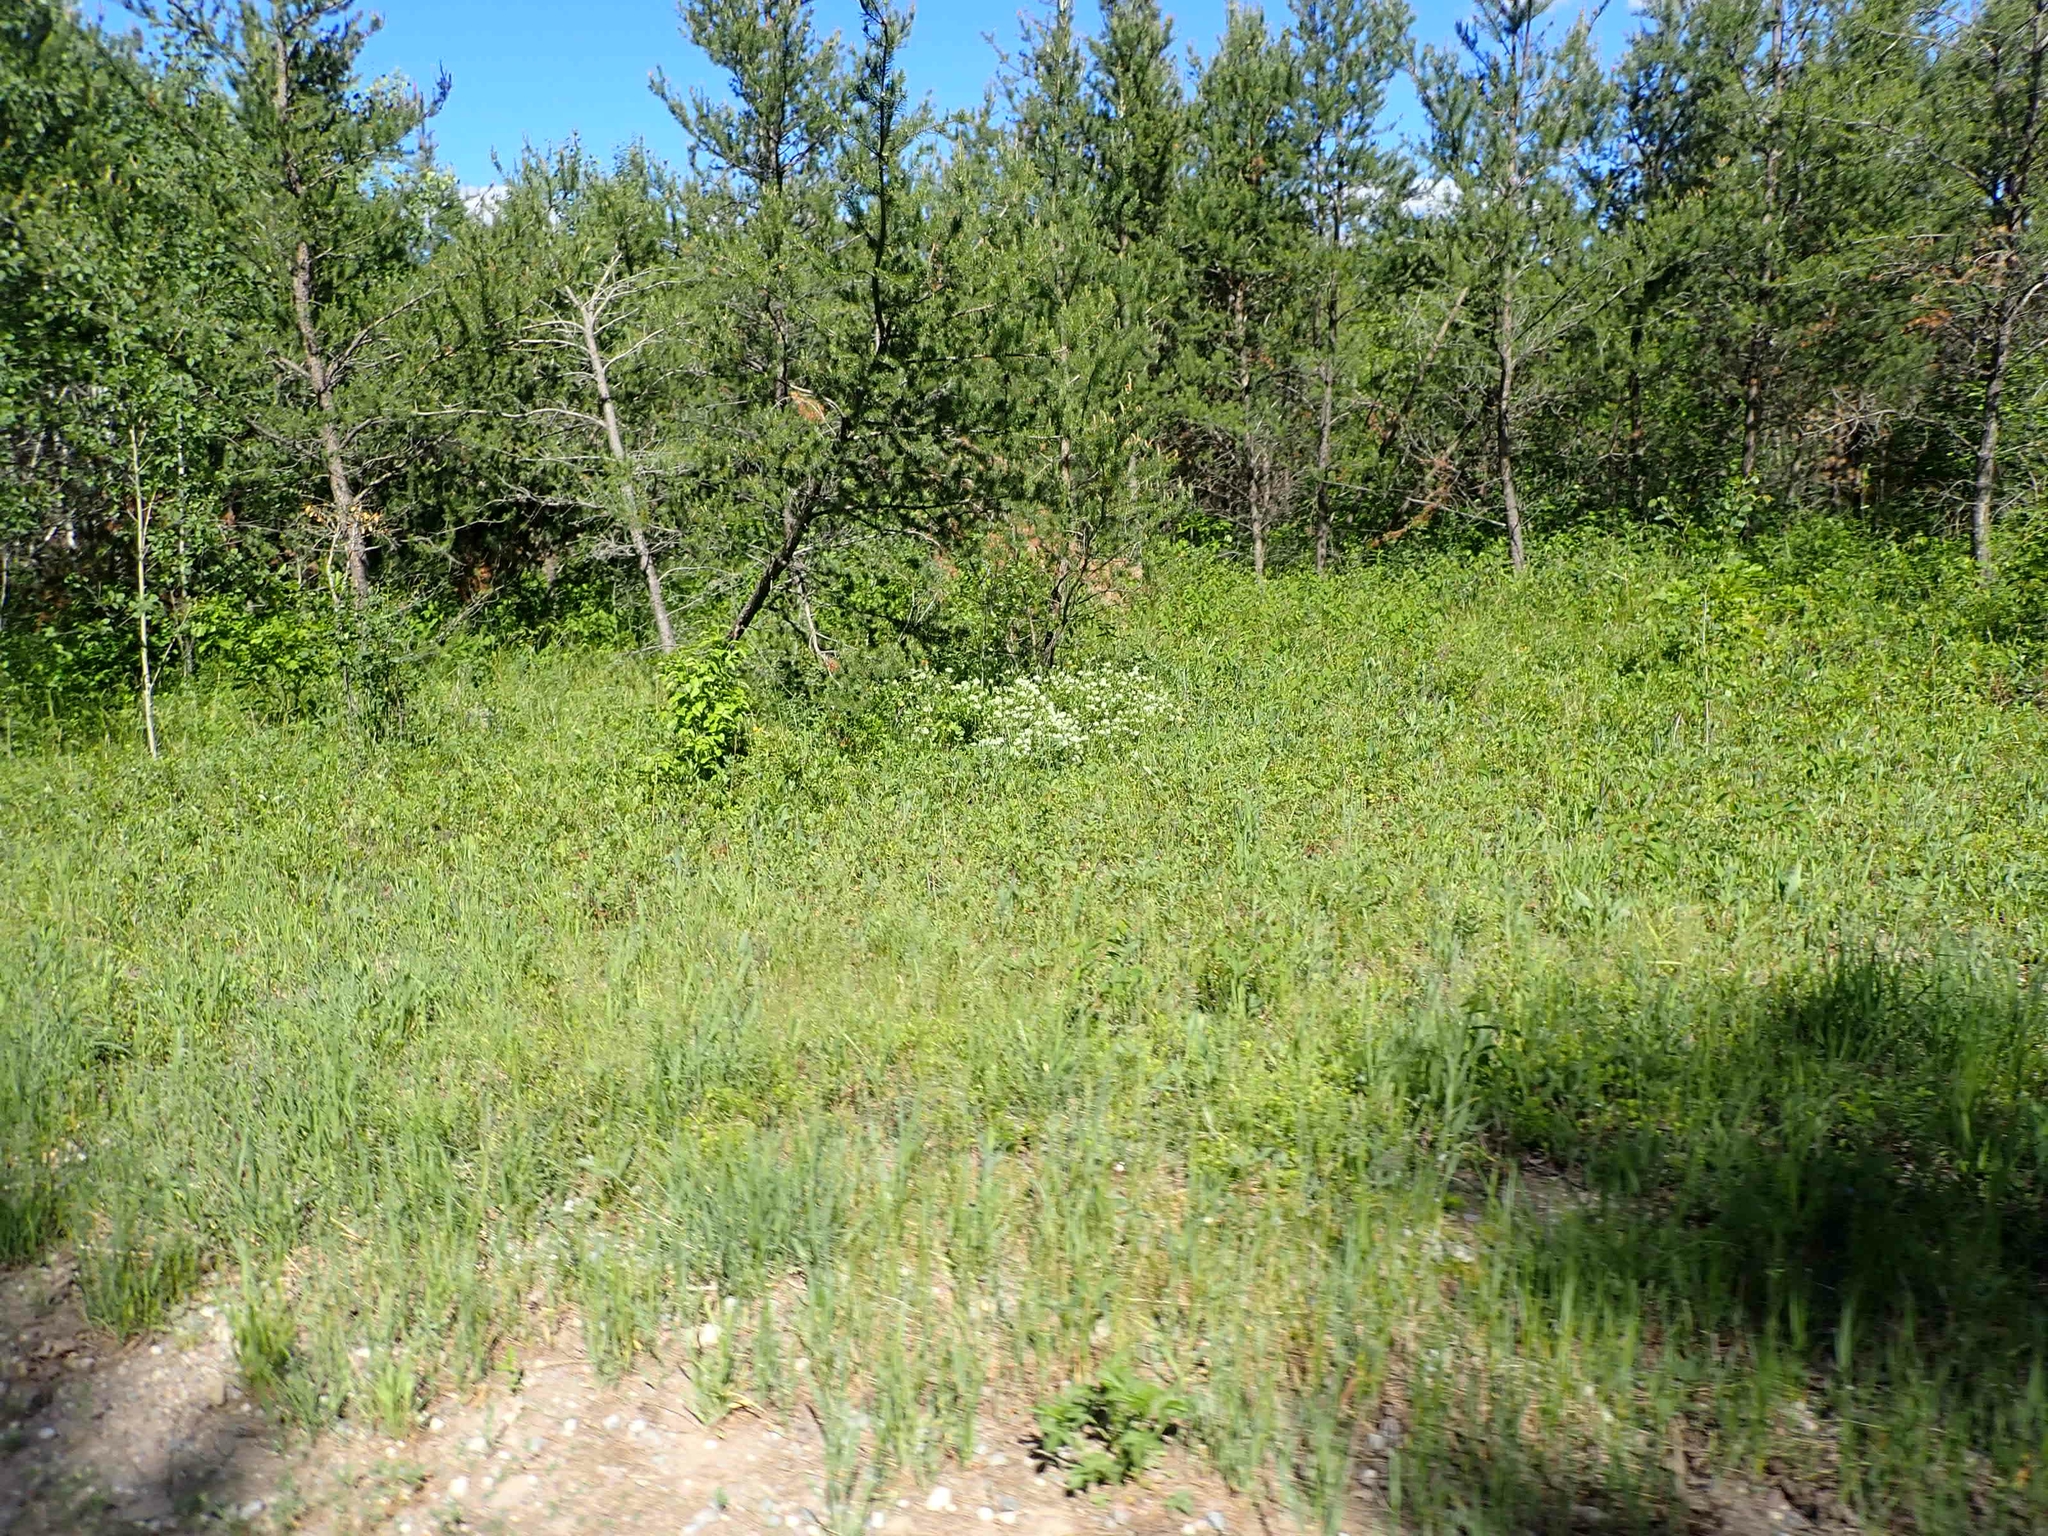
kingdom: Plantae
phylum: Tracheophyta
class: Magnoliopsida
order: Rosales
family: Rhamnaceae
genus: Ceanothus
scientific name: Ceanothus herbaceus
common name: Inland ceanothus
